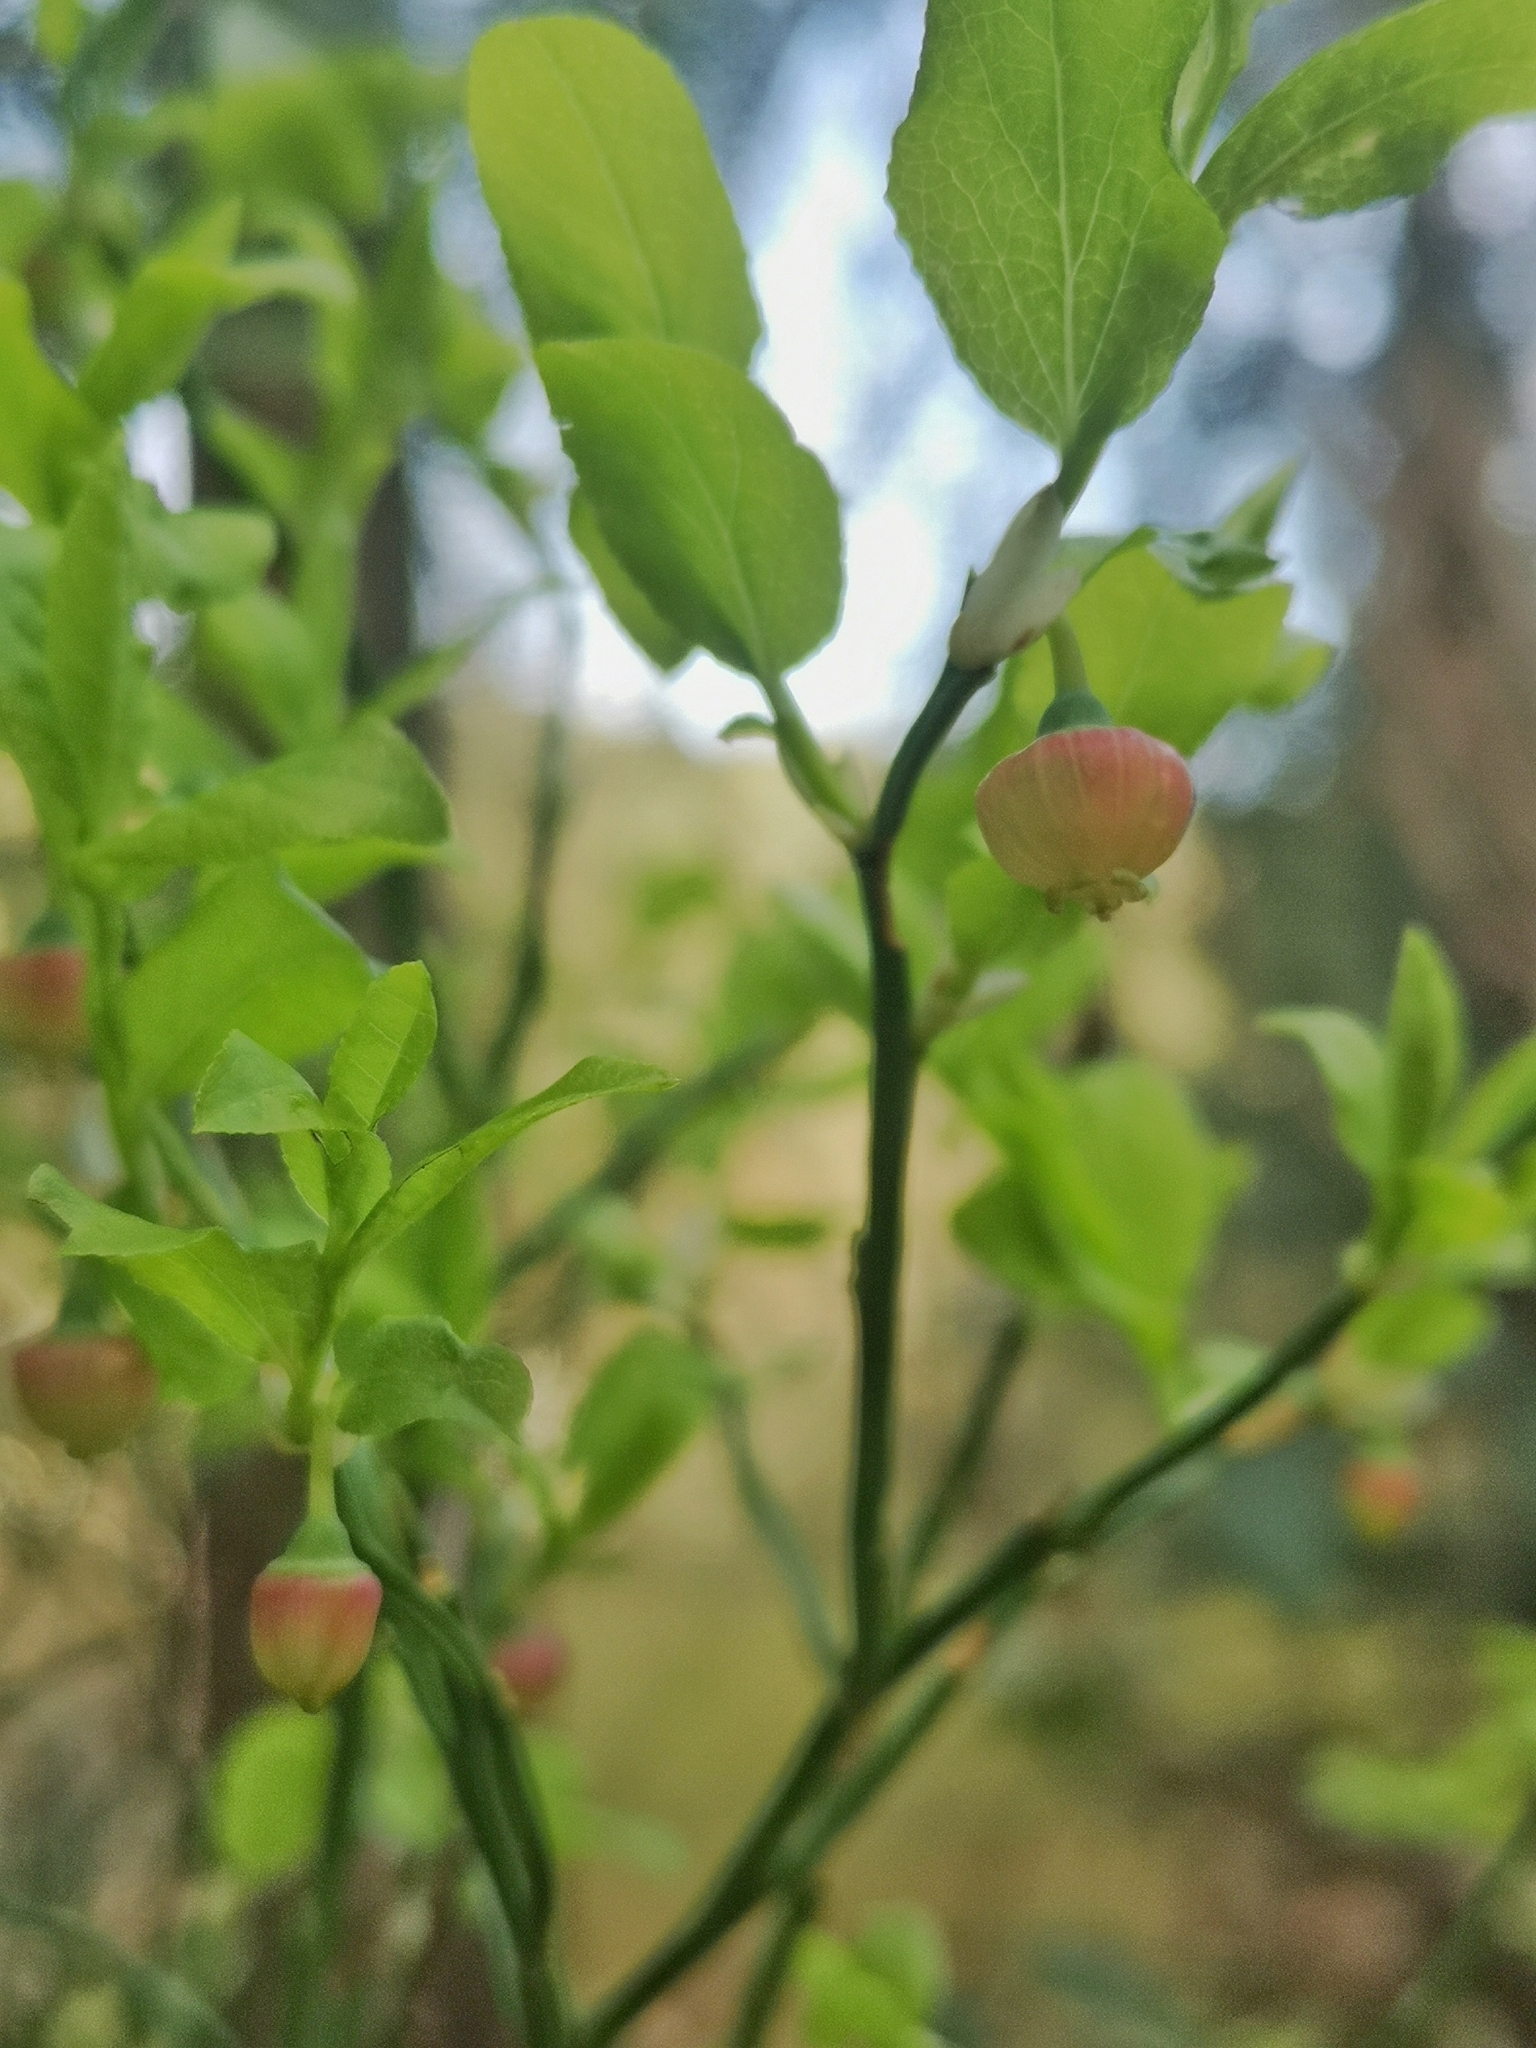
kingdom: Plantae
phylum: Tracheophyta
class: Magnoliopsida
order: Ericales
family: Ericaceae
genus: Vaccinium
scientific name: Vaccinium myrtillus
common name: Bilberry
